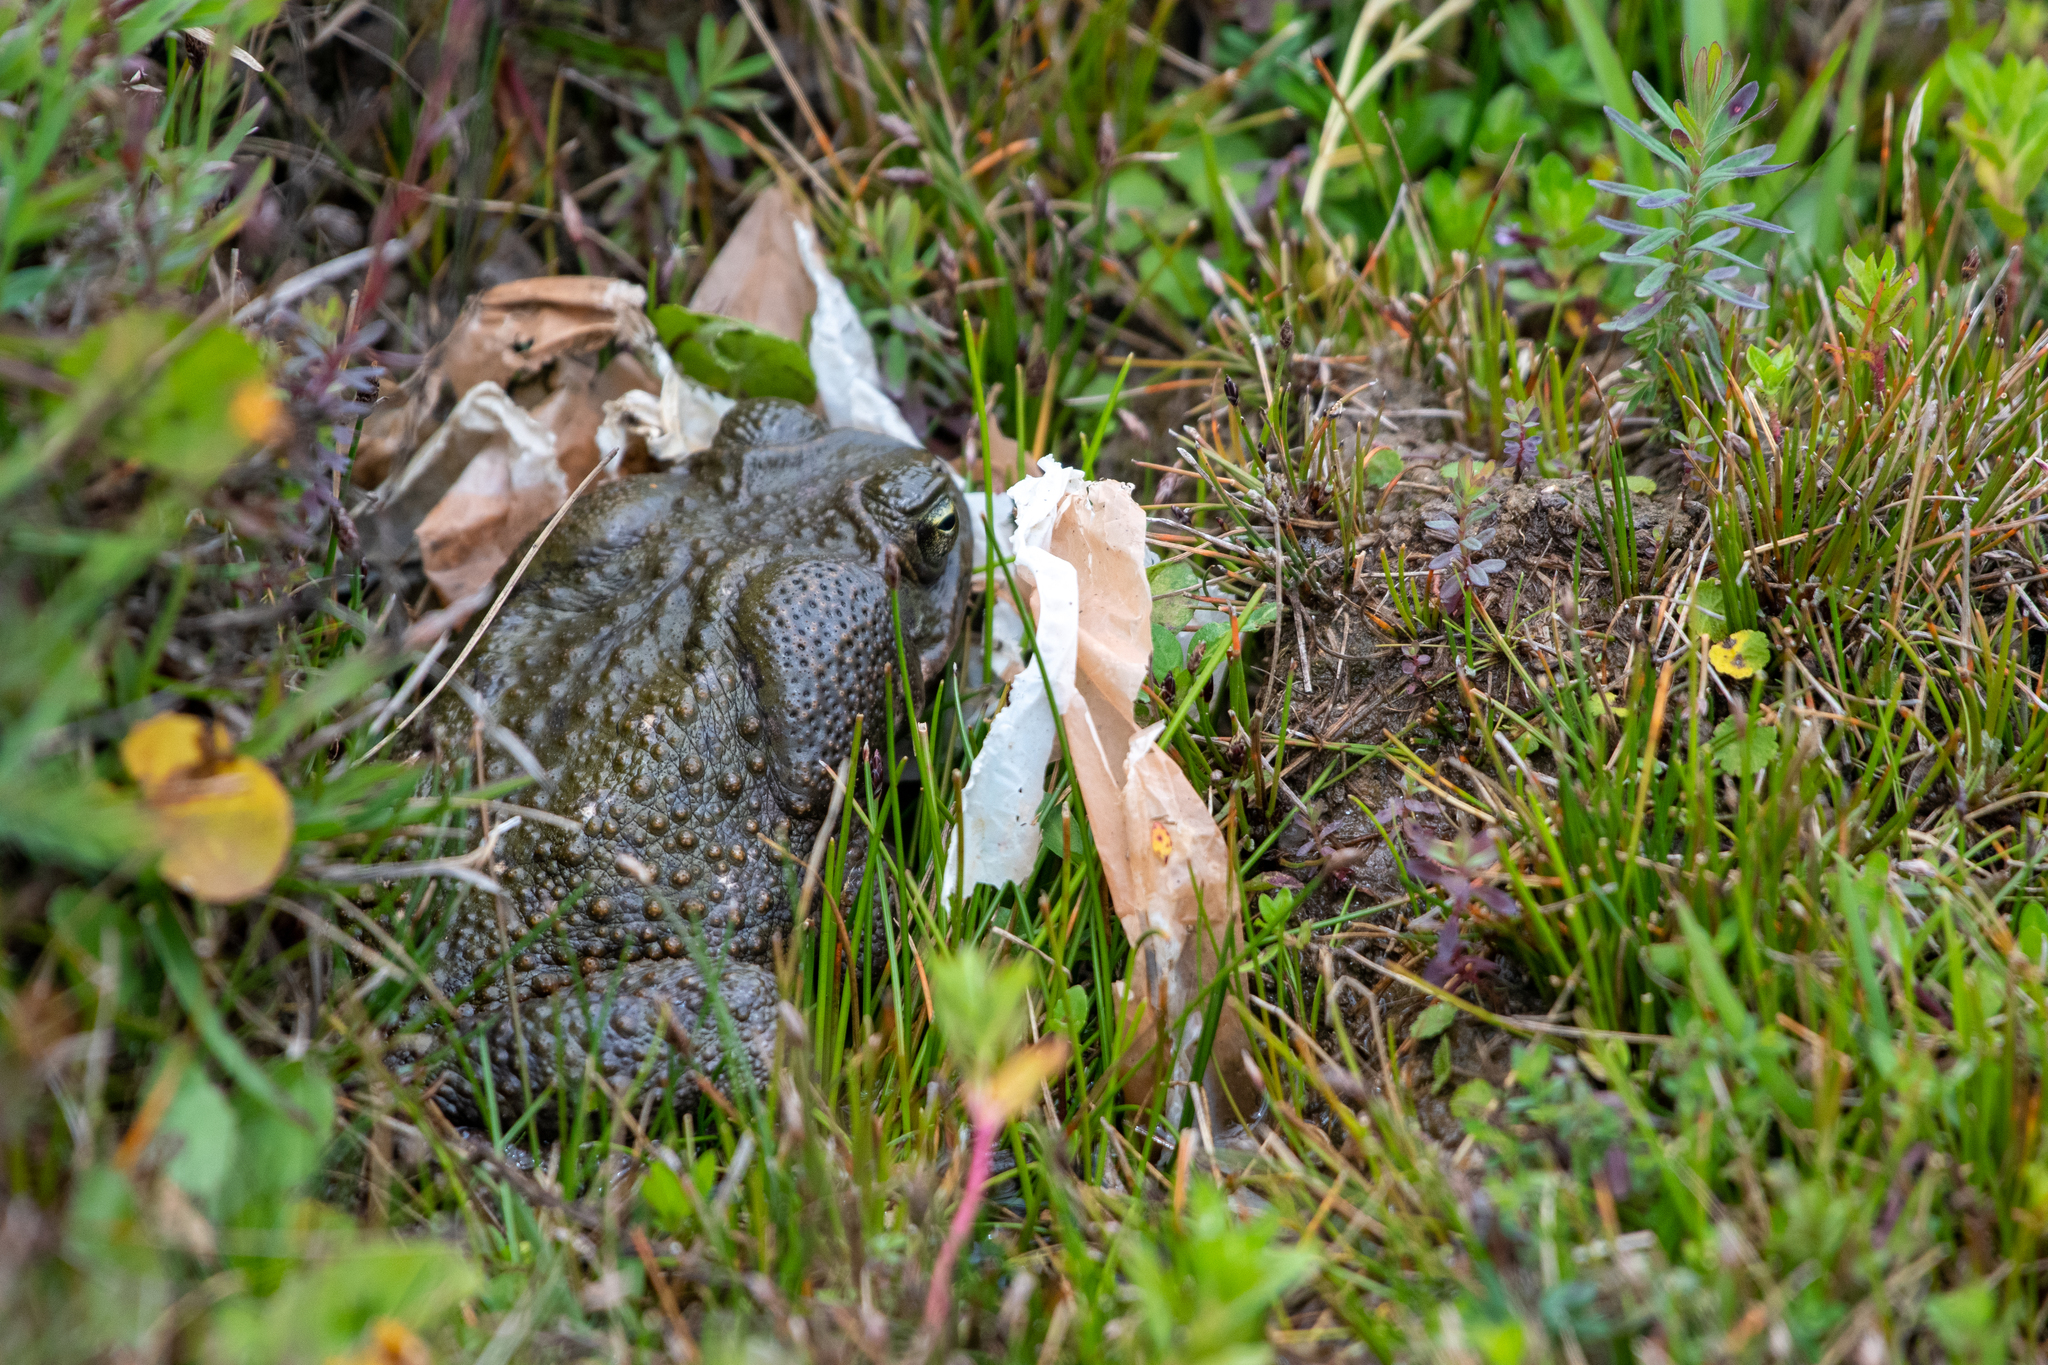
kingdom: Animalia
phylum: Chordata
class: Amphibia
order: Anura
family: Bufonidae
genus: Rhinella
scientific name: Rhinella horribilis
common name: Mesoamerican cane toad
